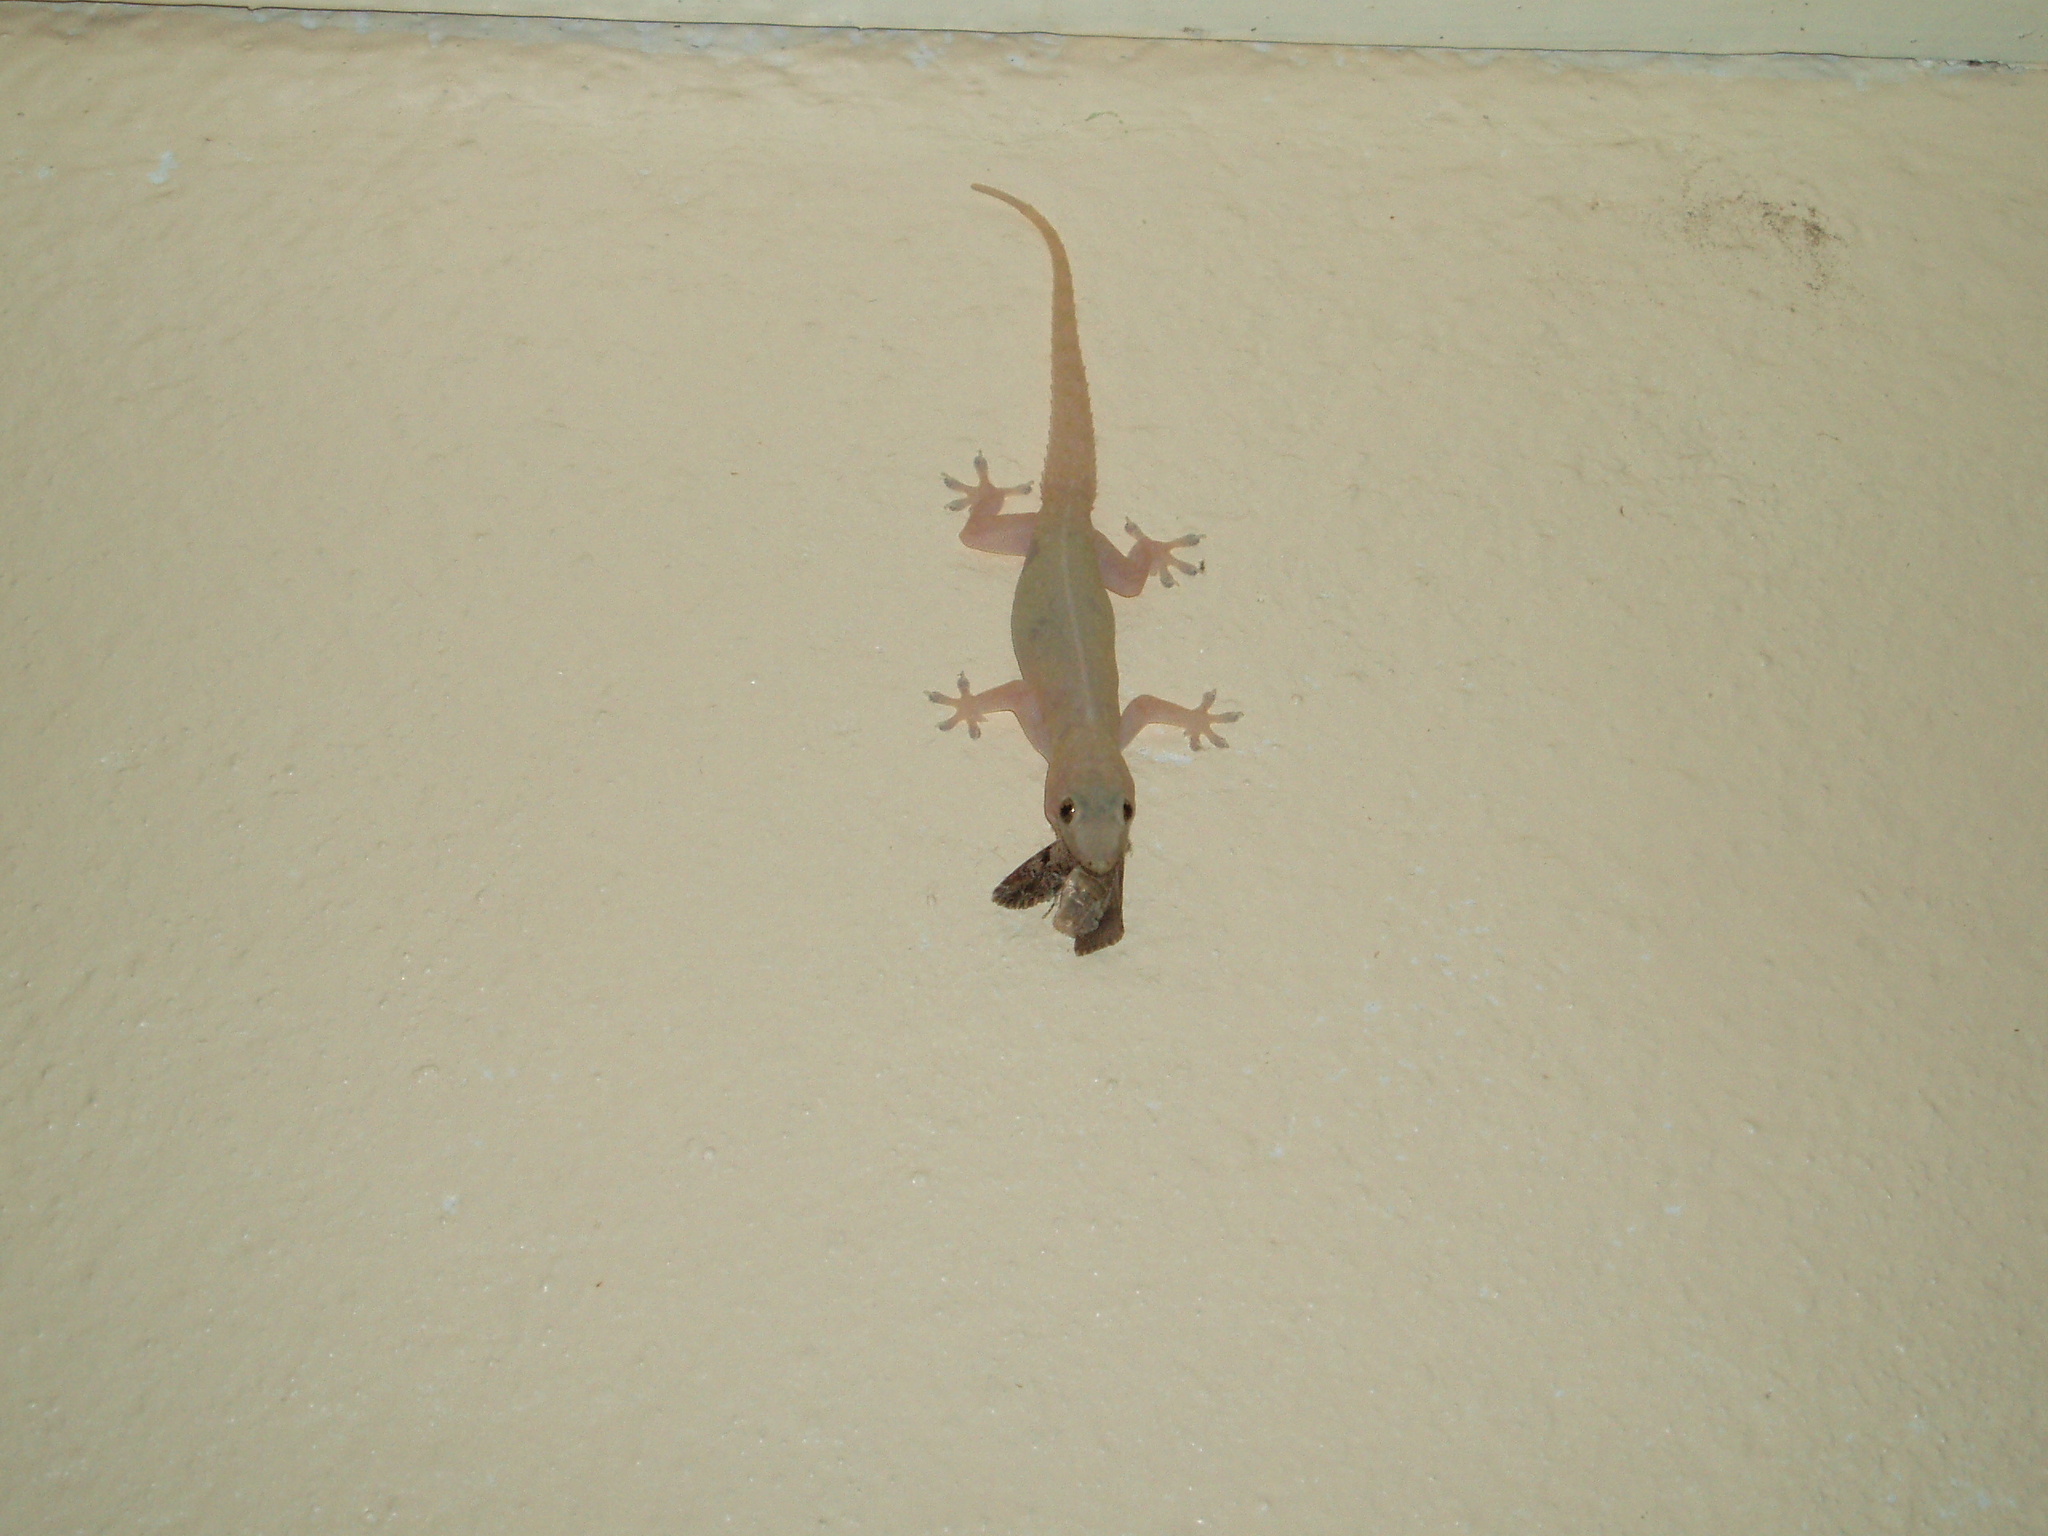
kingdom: Animalia
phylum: Chordata
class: Squamata
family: Gekkonidae
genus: Hemidactylus
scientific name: Hemidactylus frenatus
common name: Common house gecko
